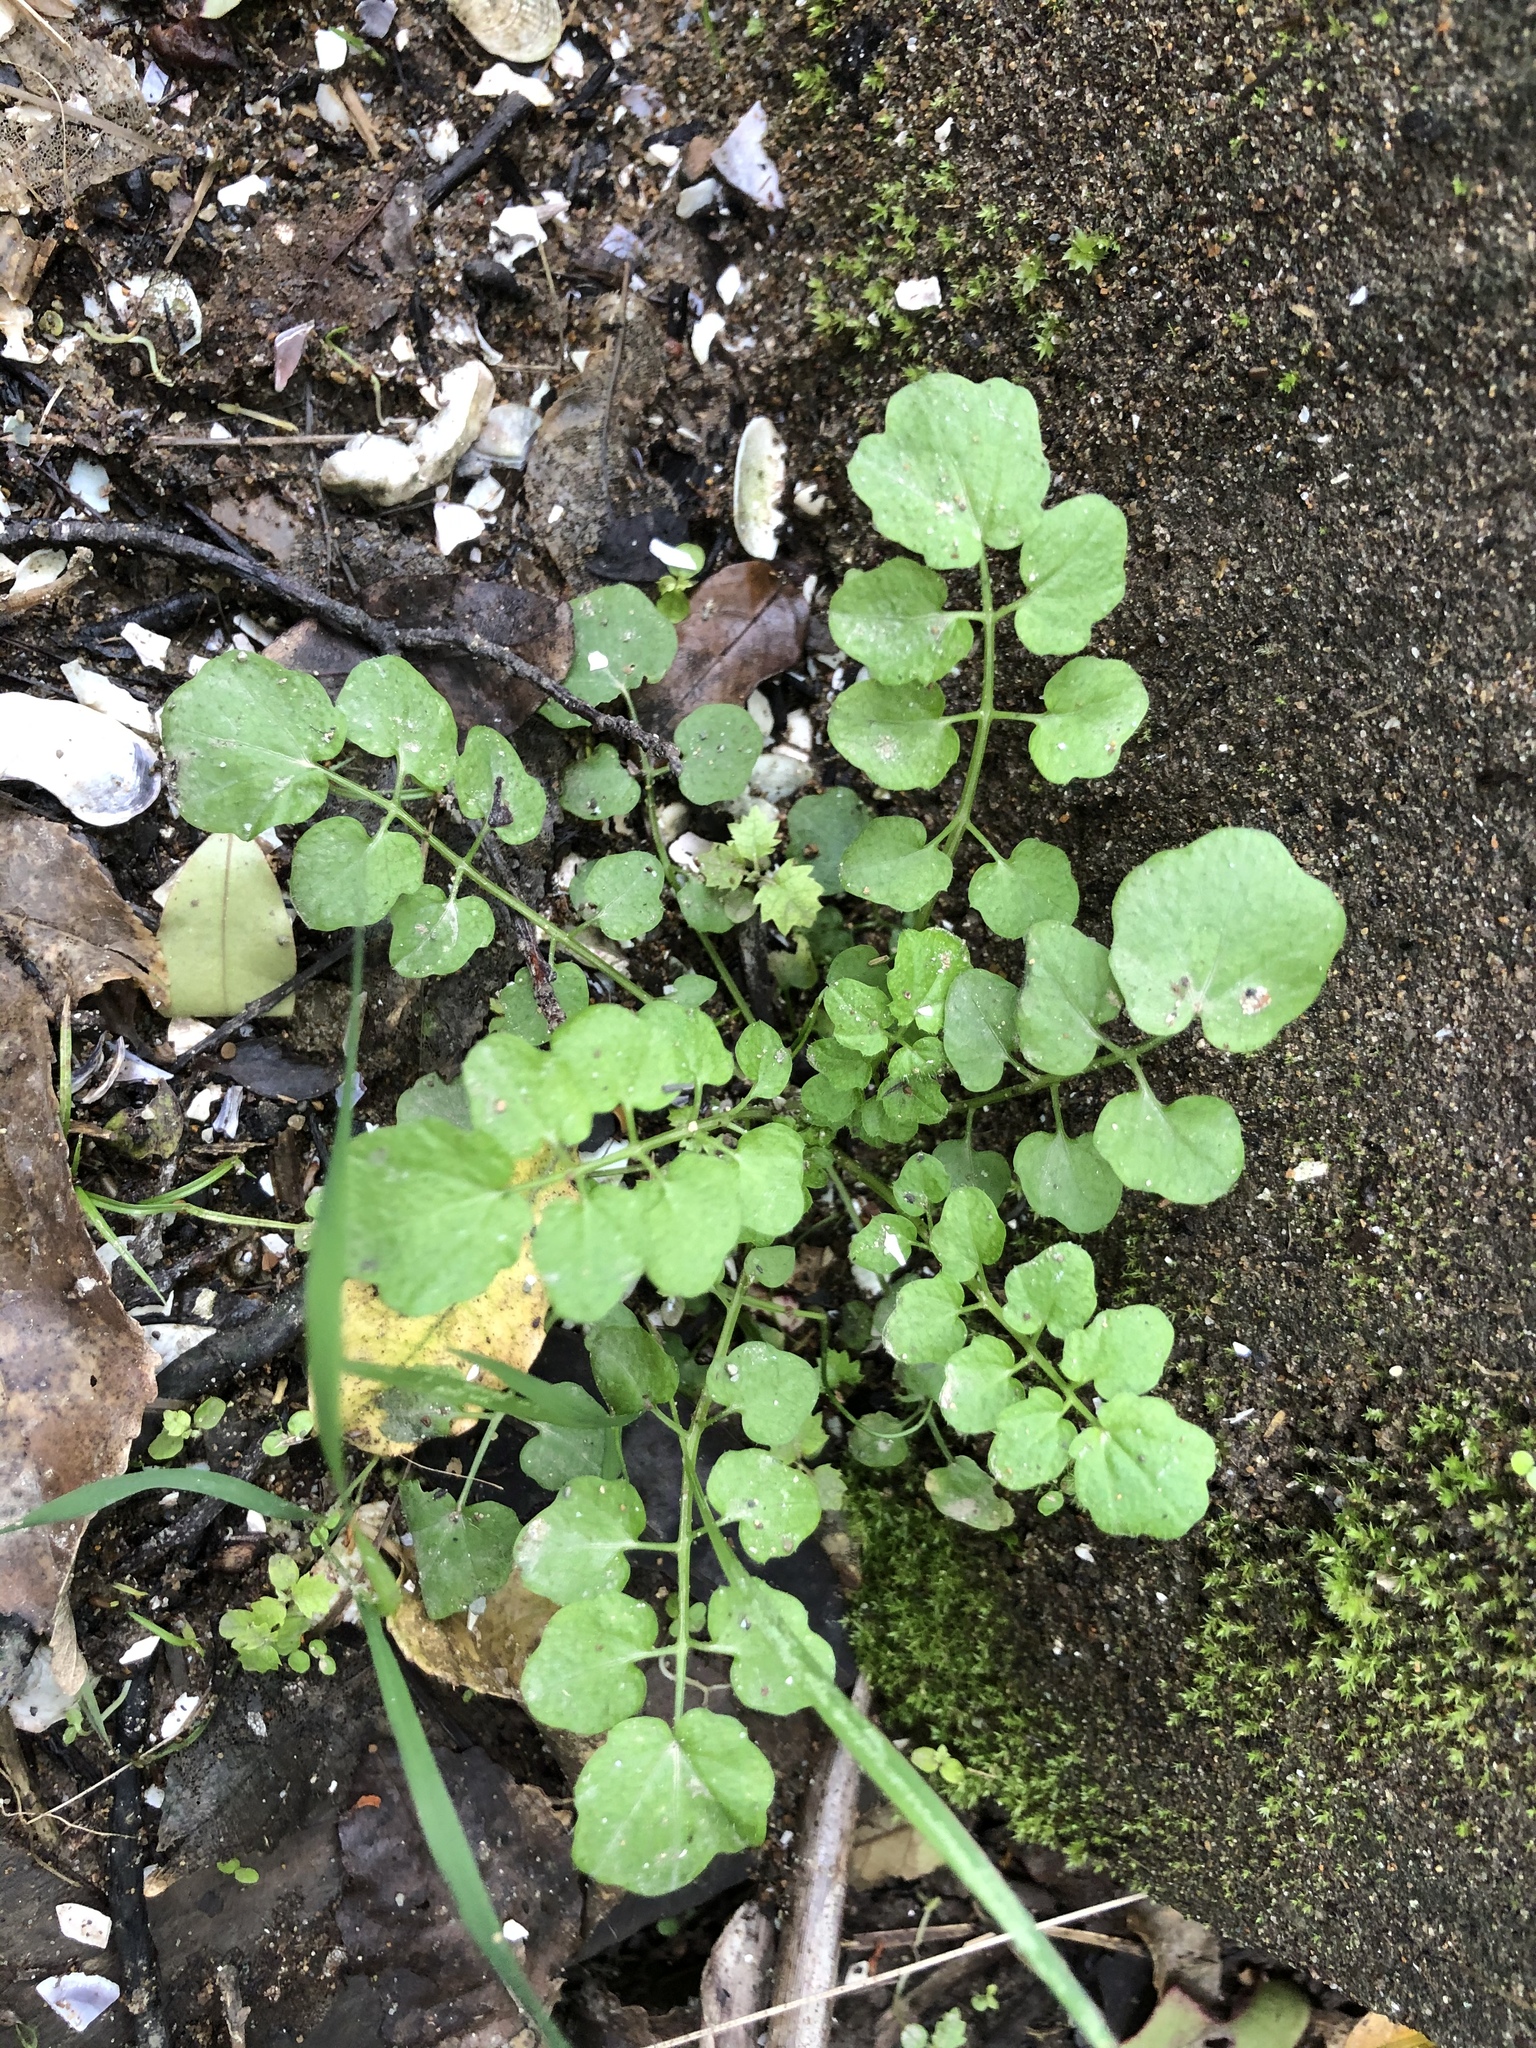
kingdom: Plantae
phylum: Tracheophyta
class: Magnoliopsida
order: Brassicales
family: Brassicaceae
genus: Cardamine
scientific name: Cardamine flexuosa
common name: Woodland bittercress
